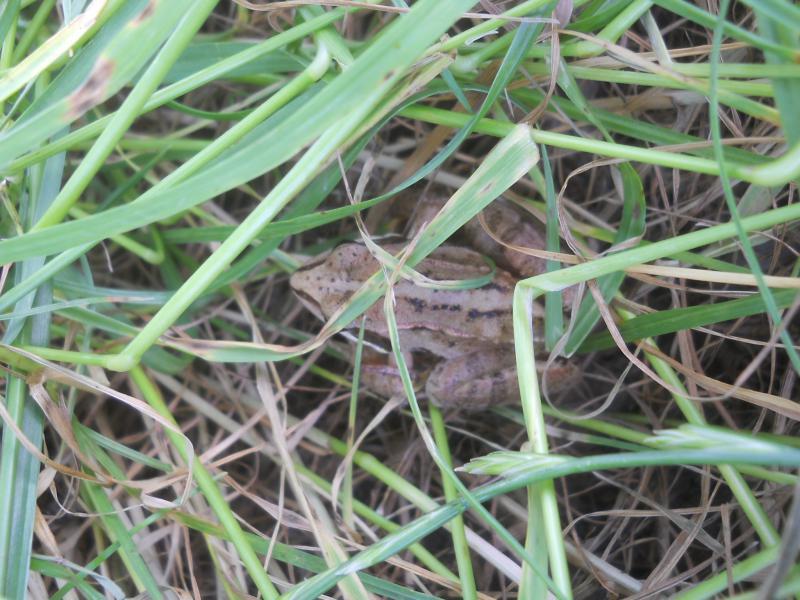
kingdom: Animalia
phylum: Chordata
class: Amphibia
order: Anura
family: Ranidae
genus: Rana
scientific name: Rana arvalis
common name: Moor frog
